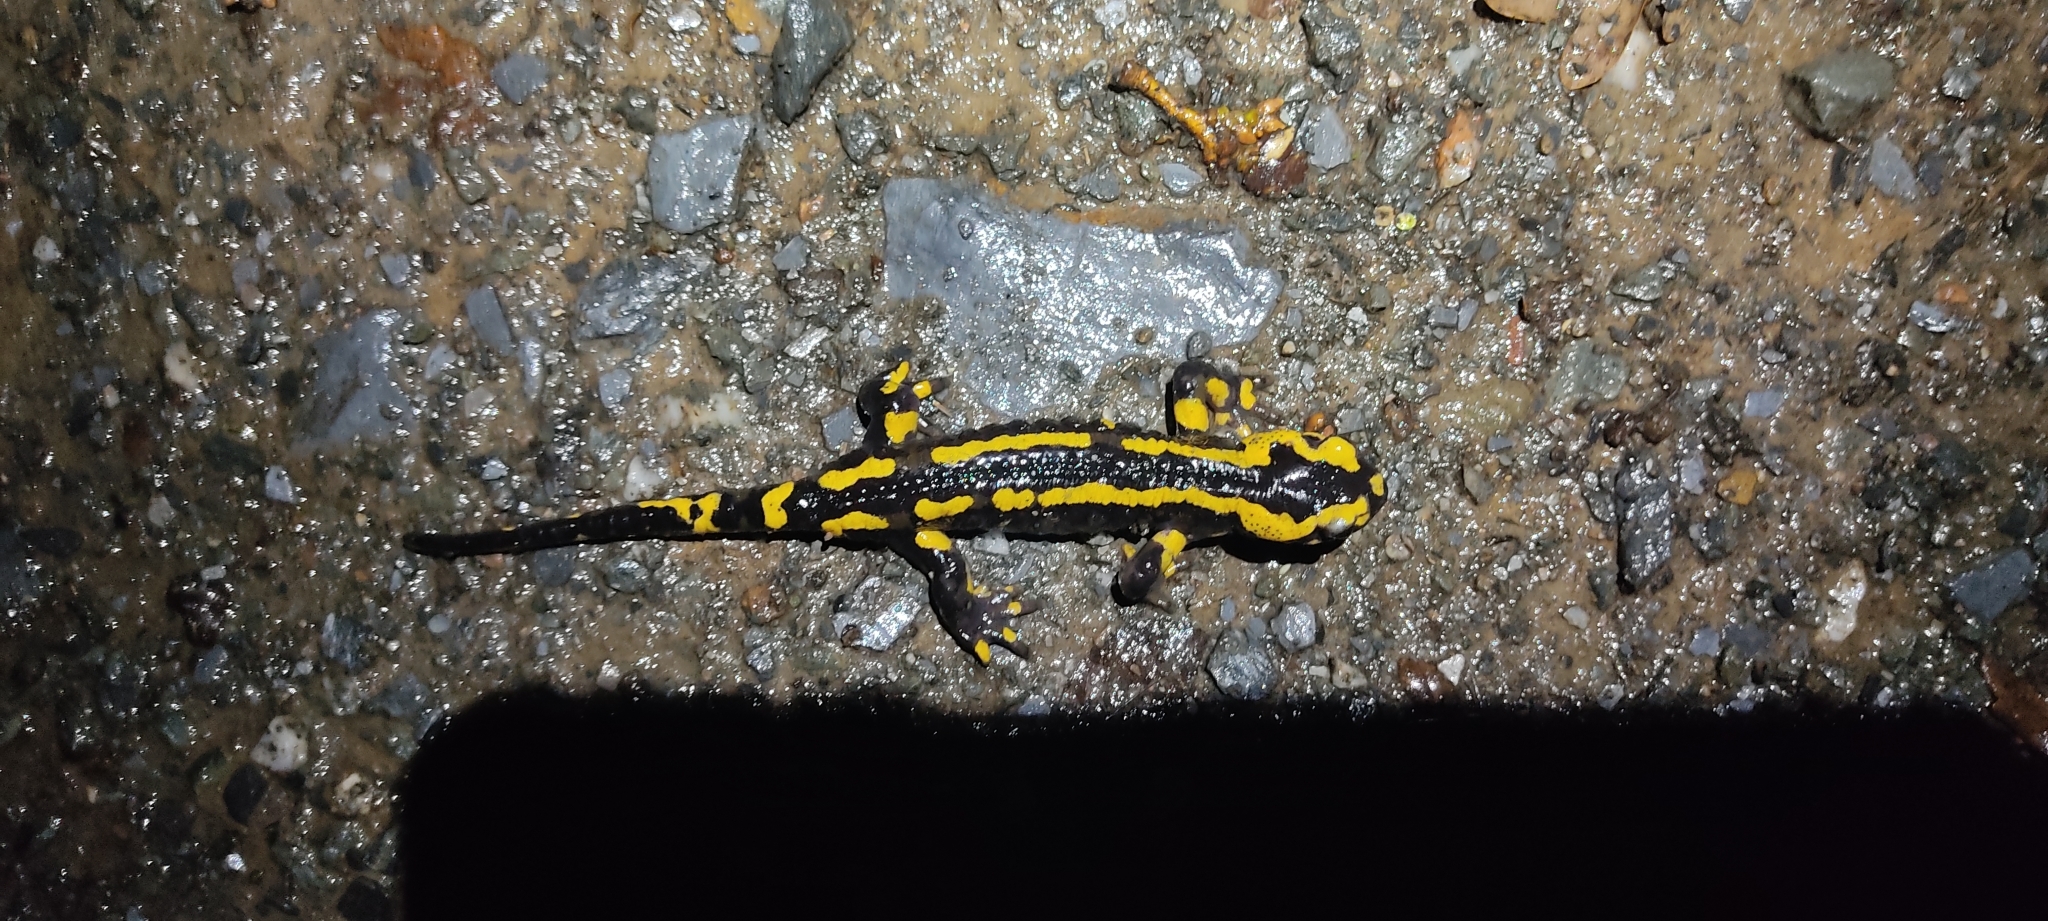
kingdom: Animalia
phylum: Chordata
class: Amphibia
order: Caudata
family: Salamandridae
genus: Salamandra
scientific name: Salamandra salamandra
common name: Fire salamander
